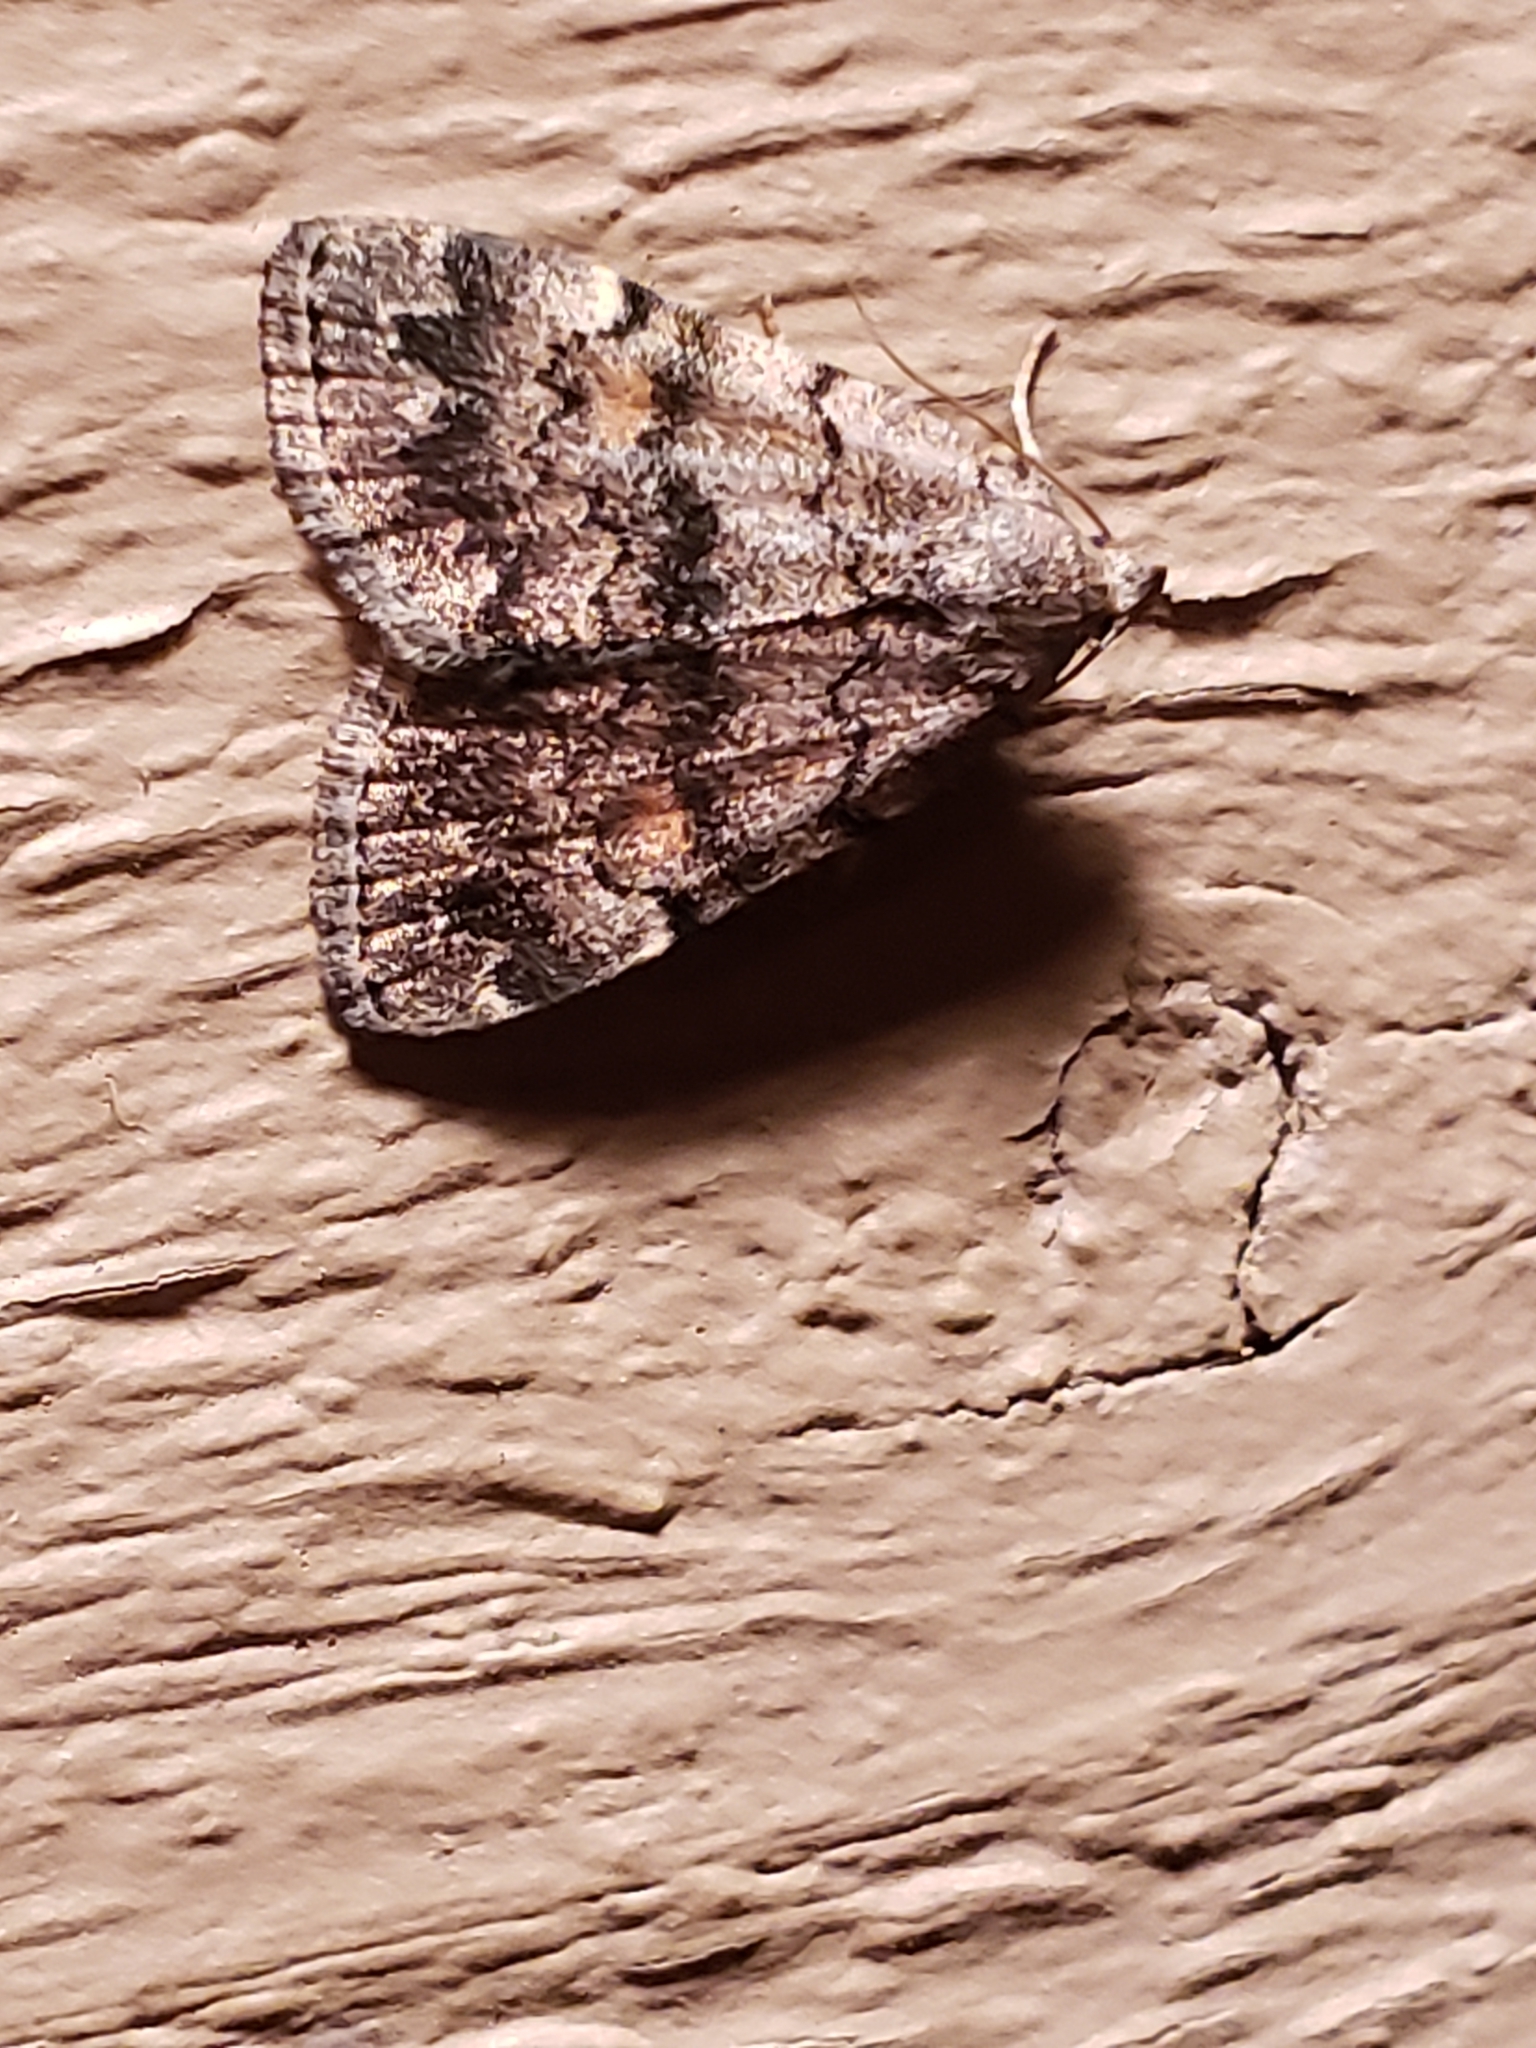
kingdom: Animalia
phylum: Arthropoda
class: Insecta
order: Lepidoptera
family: Erebidae
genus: Idia
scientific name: Idia aemula
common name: Common idia moth
